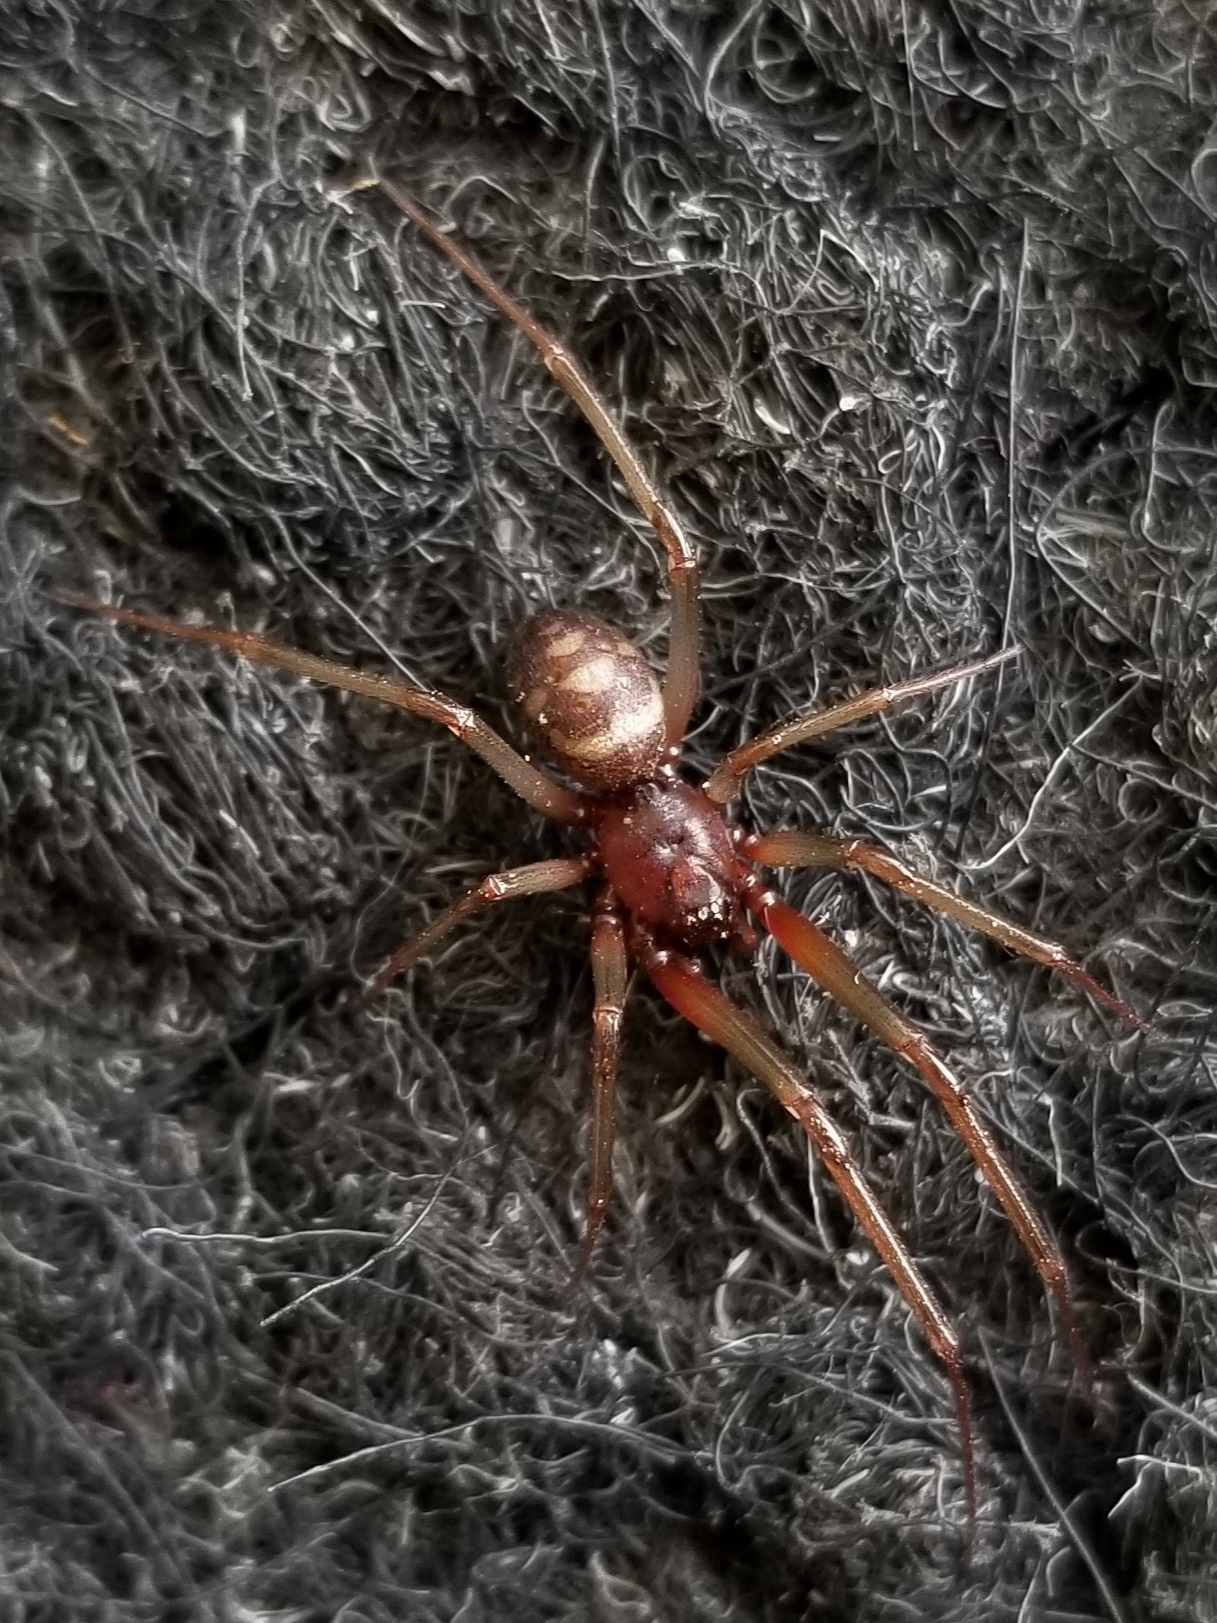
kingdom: Animalia
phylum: Arthropoda
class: Arachnida
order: Araneae
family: Theridiidae
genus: Steatoda
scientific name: Steatoda grossa
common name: False black widow
